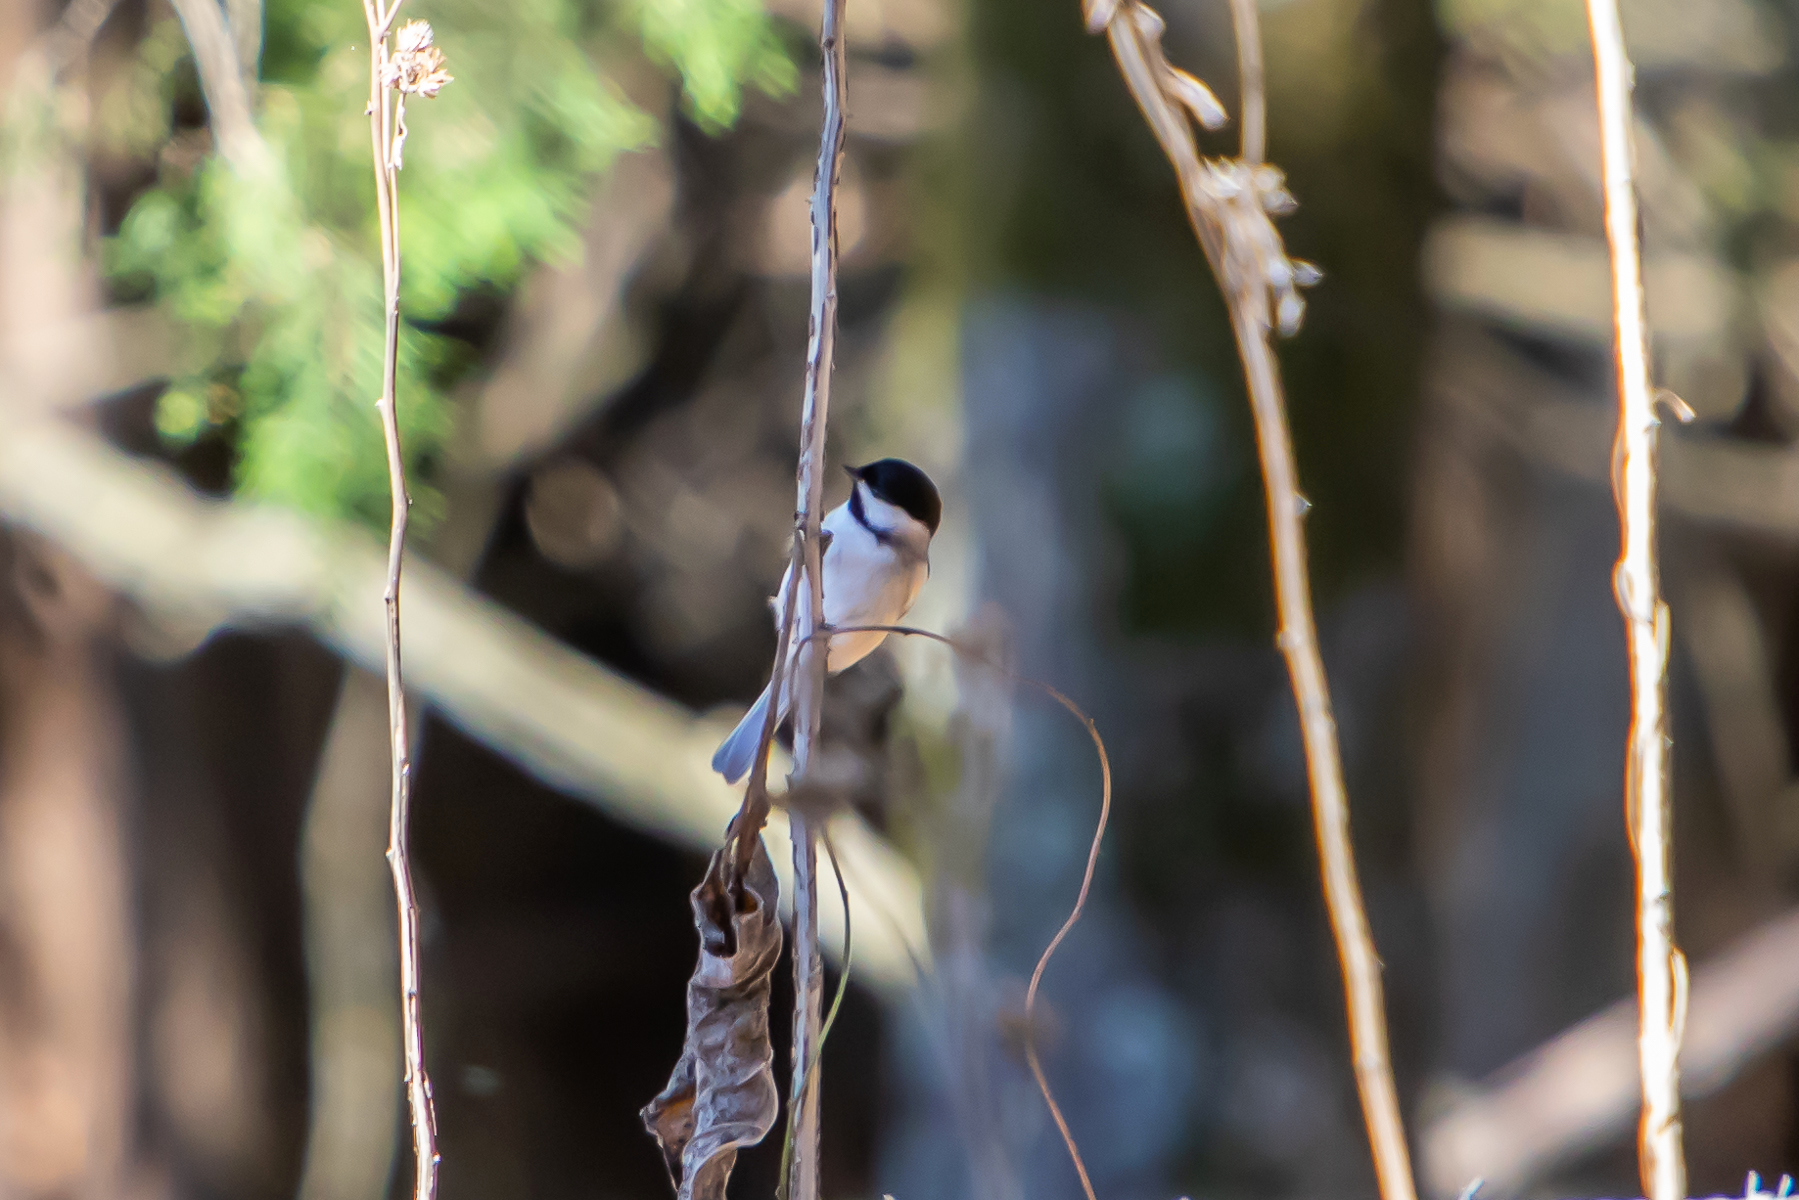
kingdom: Animalia
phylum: Chordata
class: Aves
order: Passeriformes
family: Paridae
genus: Poecile
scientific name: Poecile carolinensis
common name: Carolina chickadee
